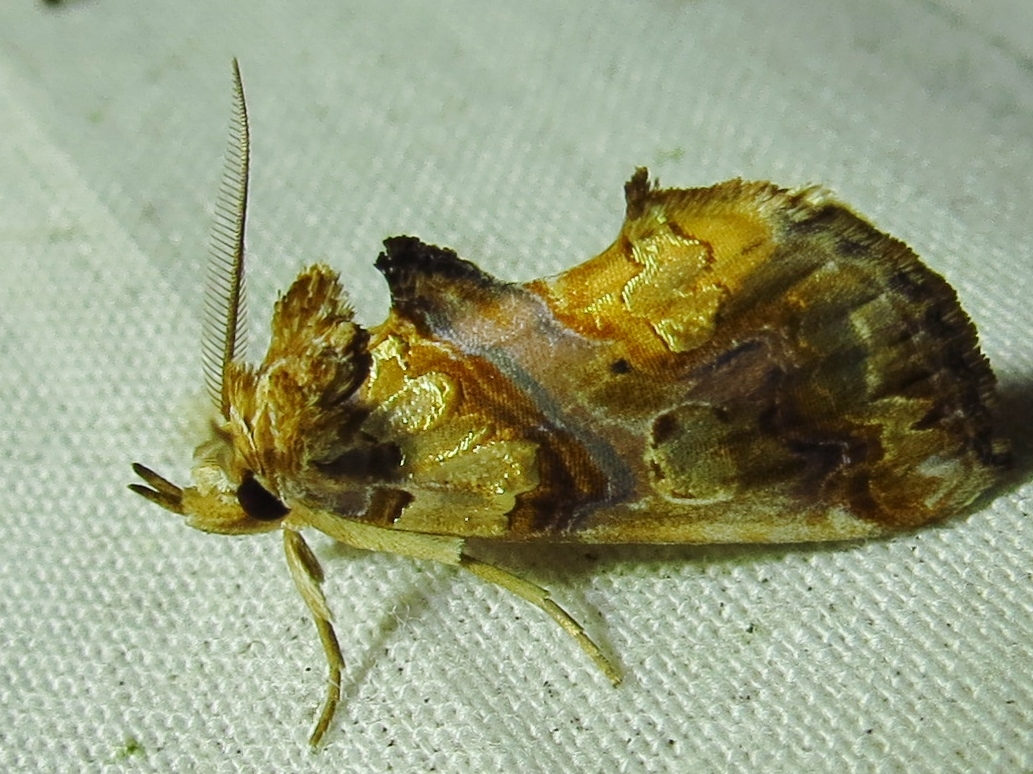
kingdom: Animalia
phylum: Arthropoda
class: Insecta
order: Lepidoptera
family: Erebidae
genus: Plusiodonta
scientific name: Plusiodonta compressipalpis
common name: Moonseed moth
